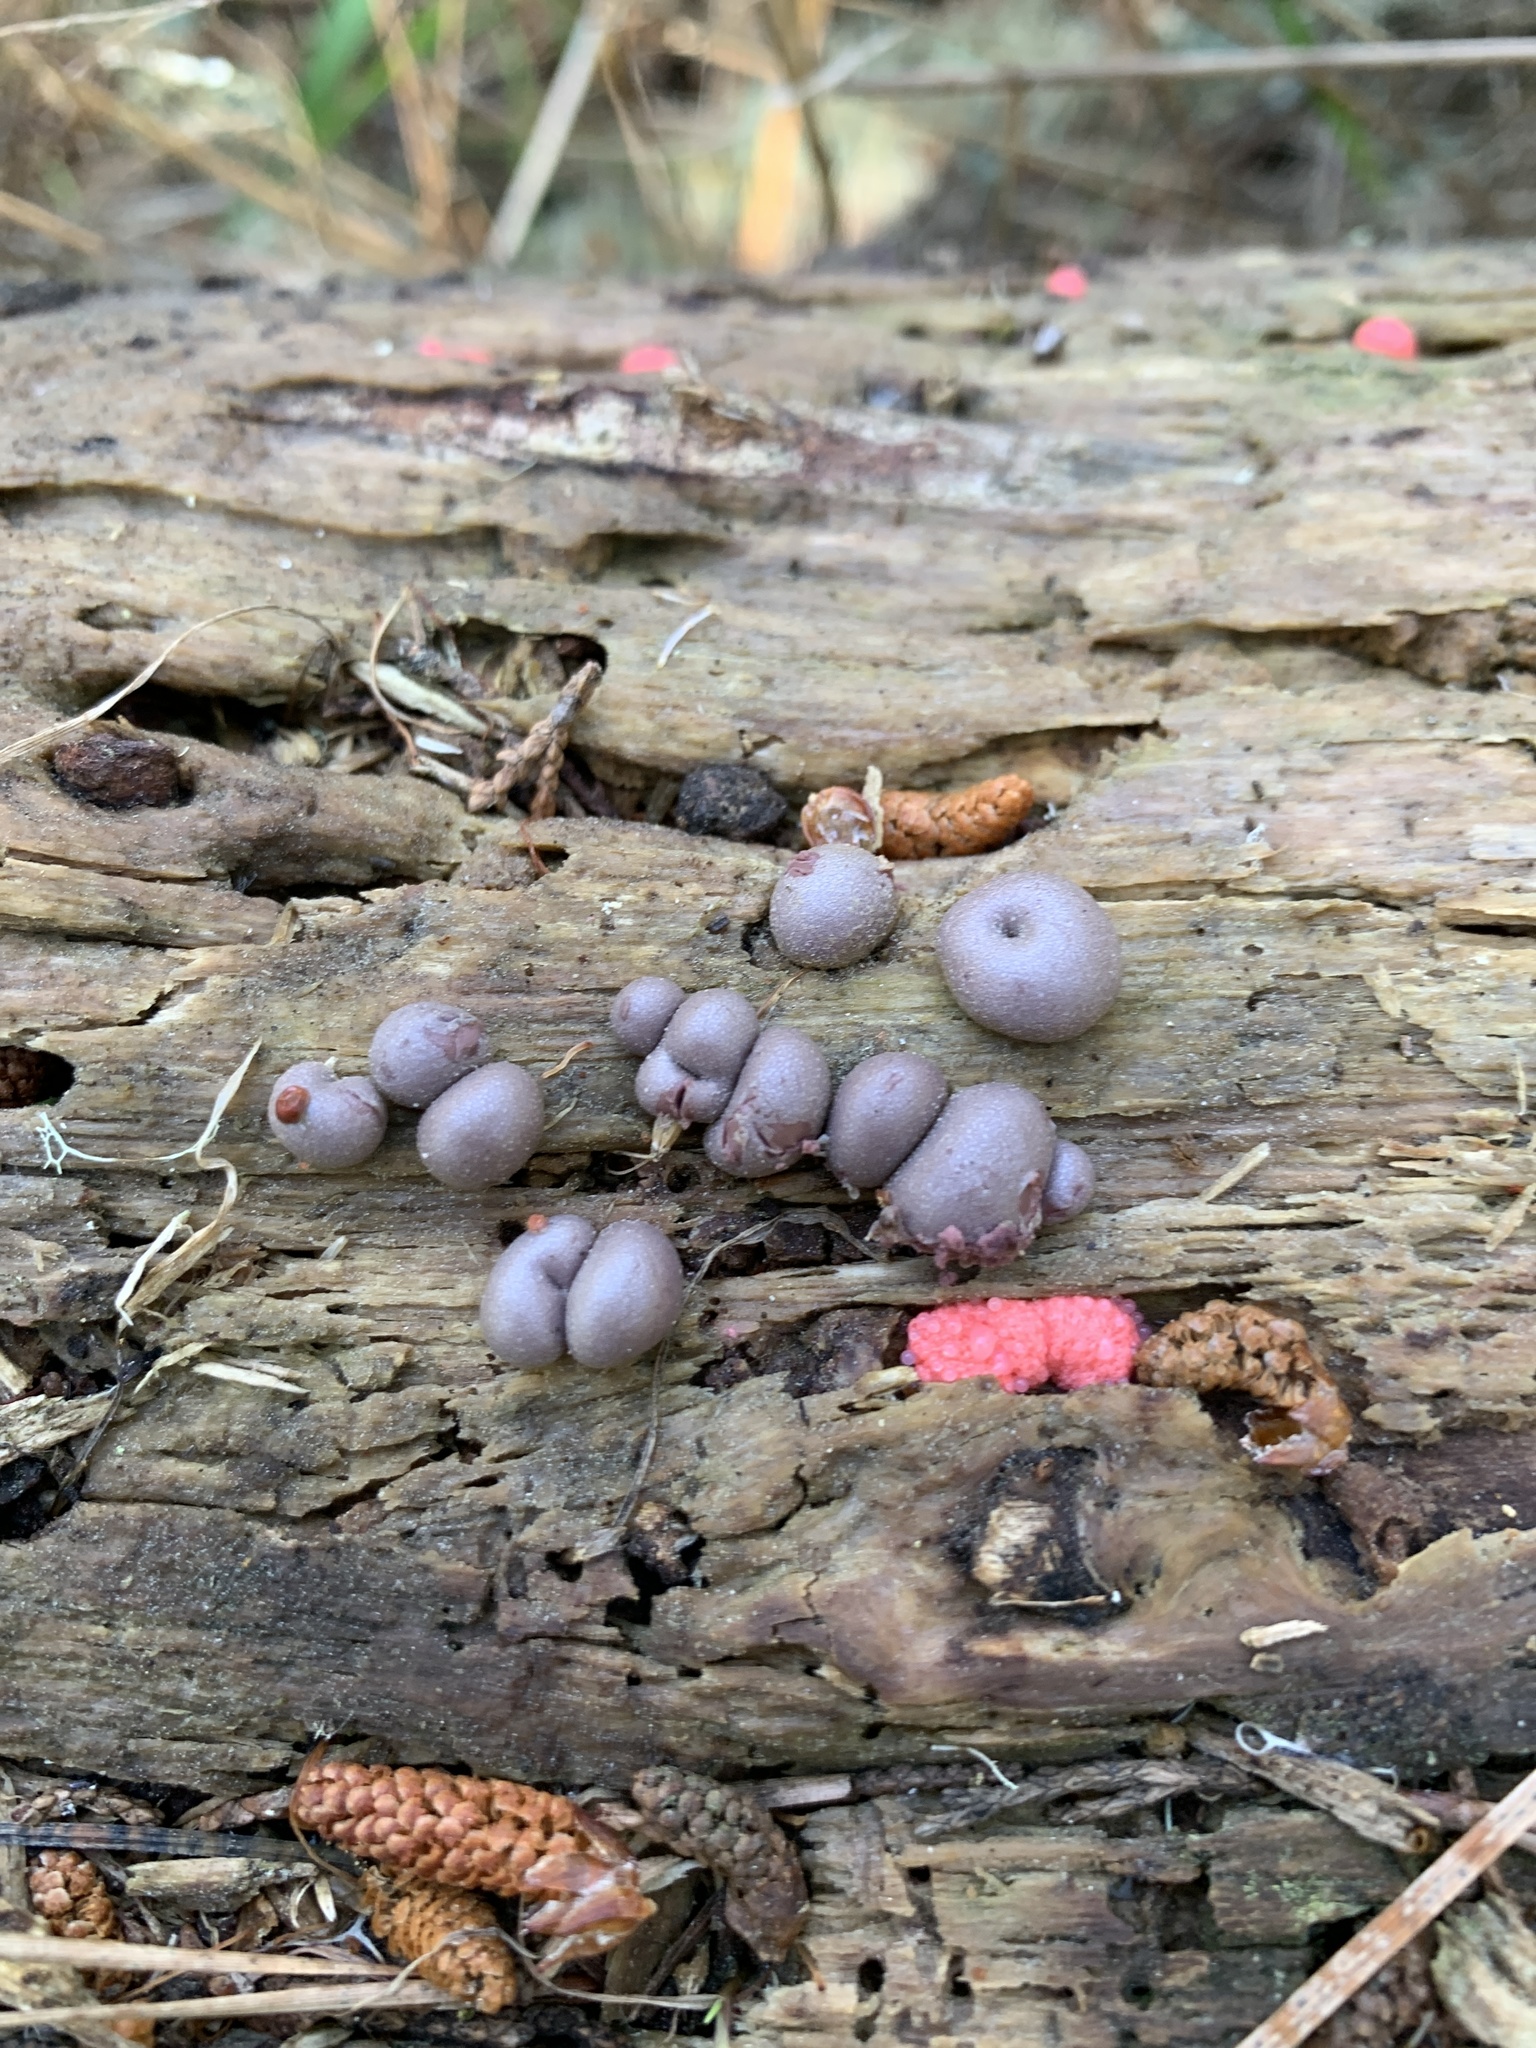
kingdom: Protozoa
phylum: Mycetozoa
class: Myxomycetes
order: Cribrariales
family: Tubiferaceae
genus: Lycogala
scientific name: Lycogala epidendrum
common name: Wolf's milk
